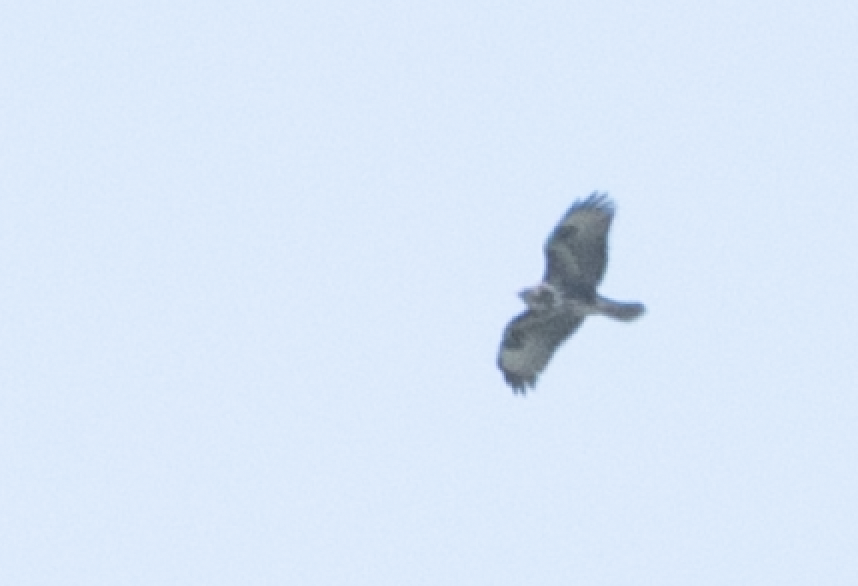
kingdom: Animalia
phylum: Chordata
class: Aves
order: Accipitriformes
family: Accipitridae
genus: Buteo
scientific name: Buteo buteo
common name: Common buzzard
